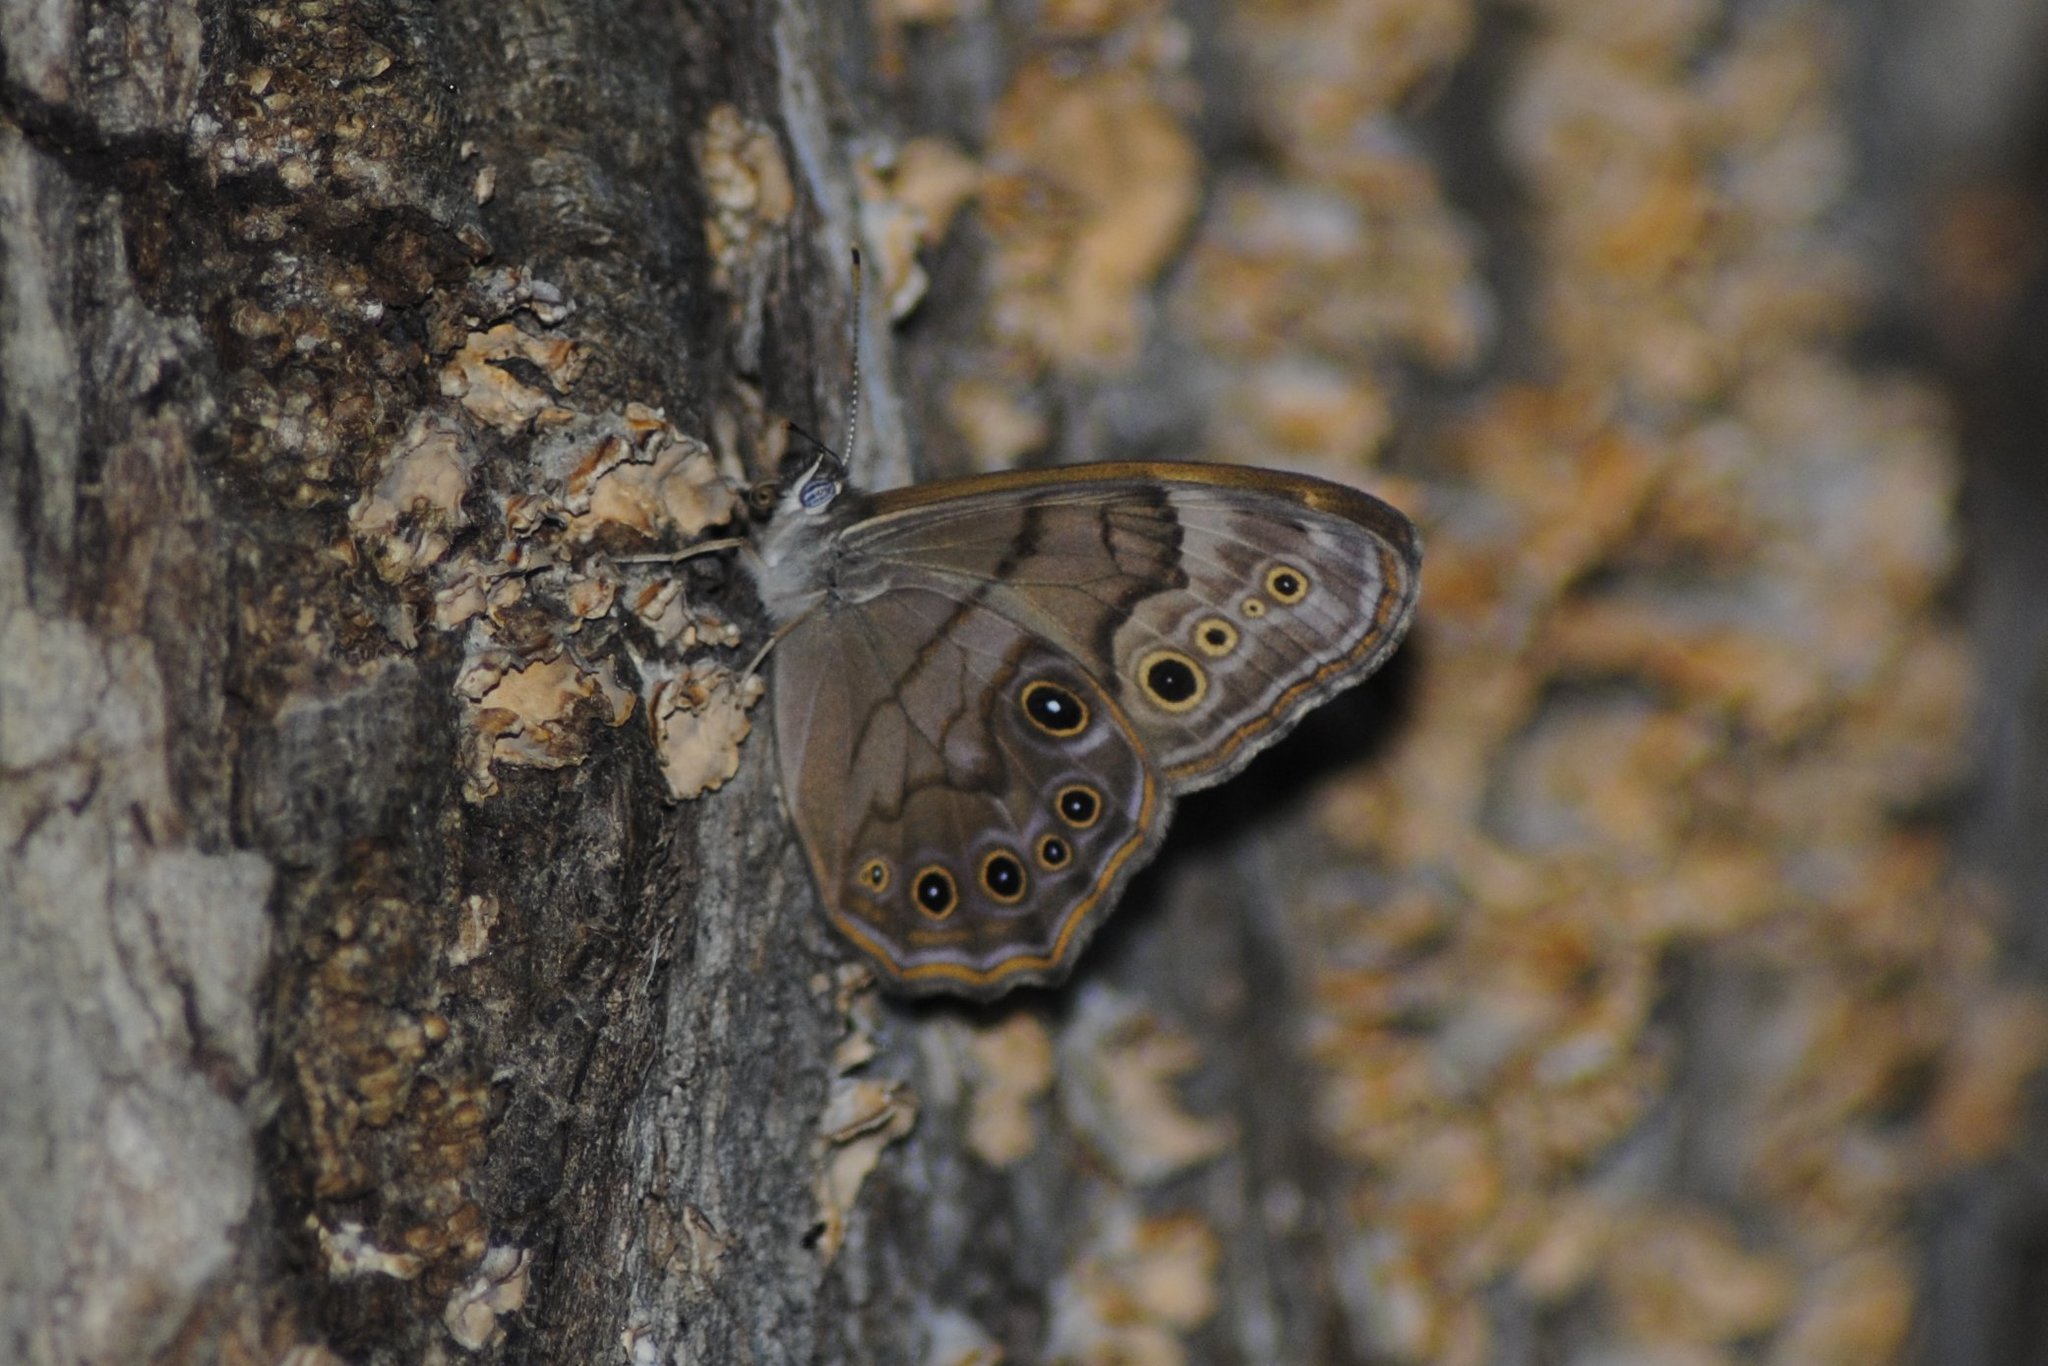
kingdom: Animalia
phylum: Arthropoda
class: Insecta
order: Lepidoptera
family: Nymphalidae
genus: Lethe
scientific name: Lethe anthedon
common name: Northern pearly-eye
